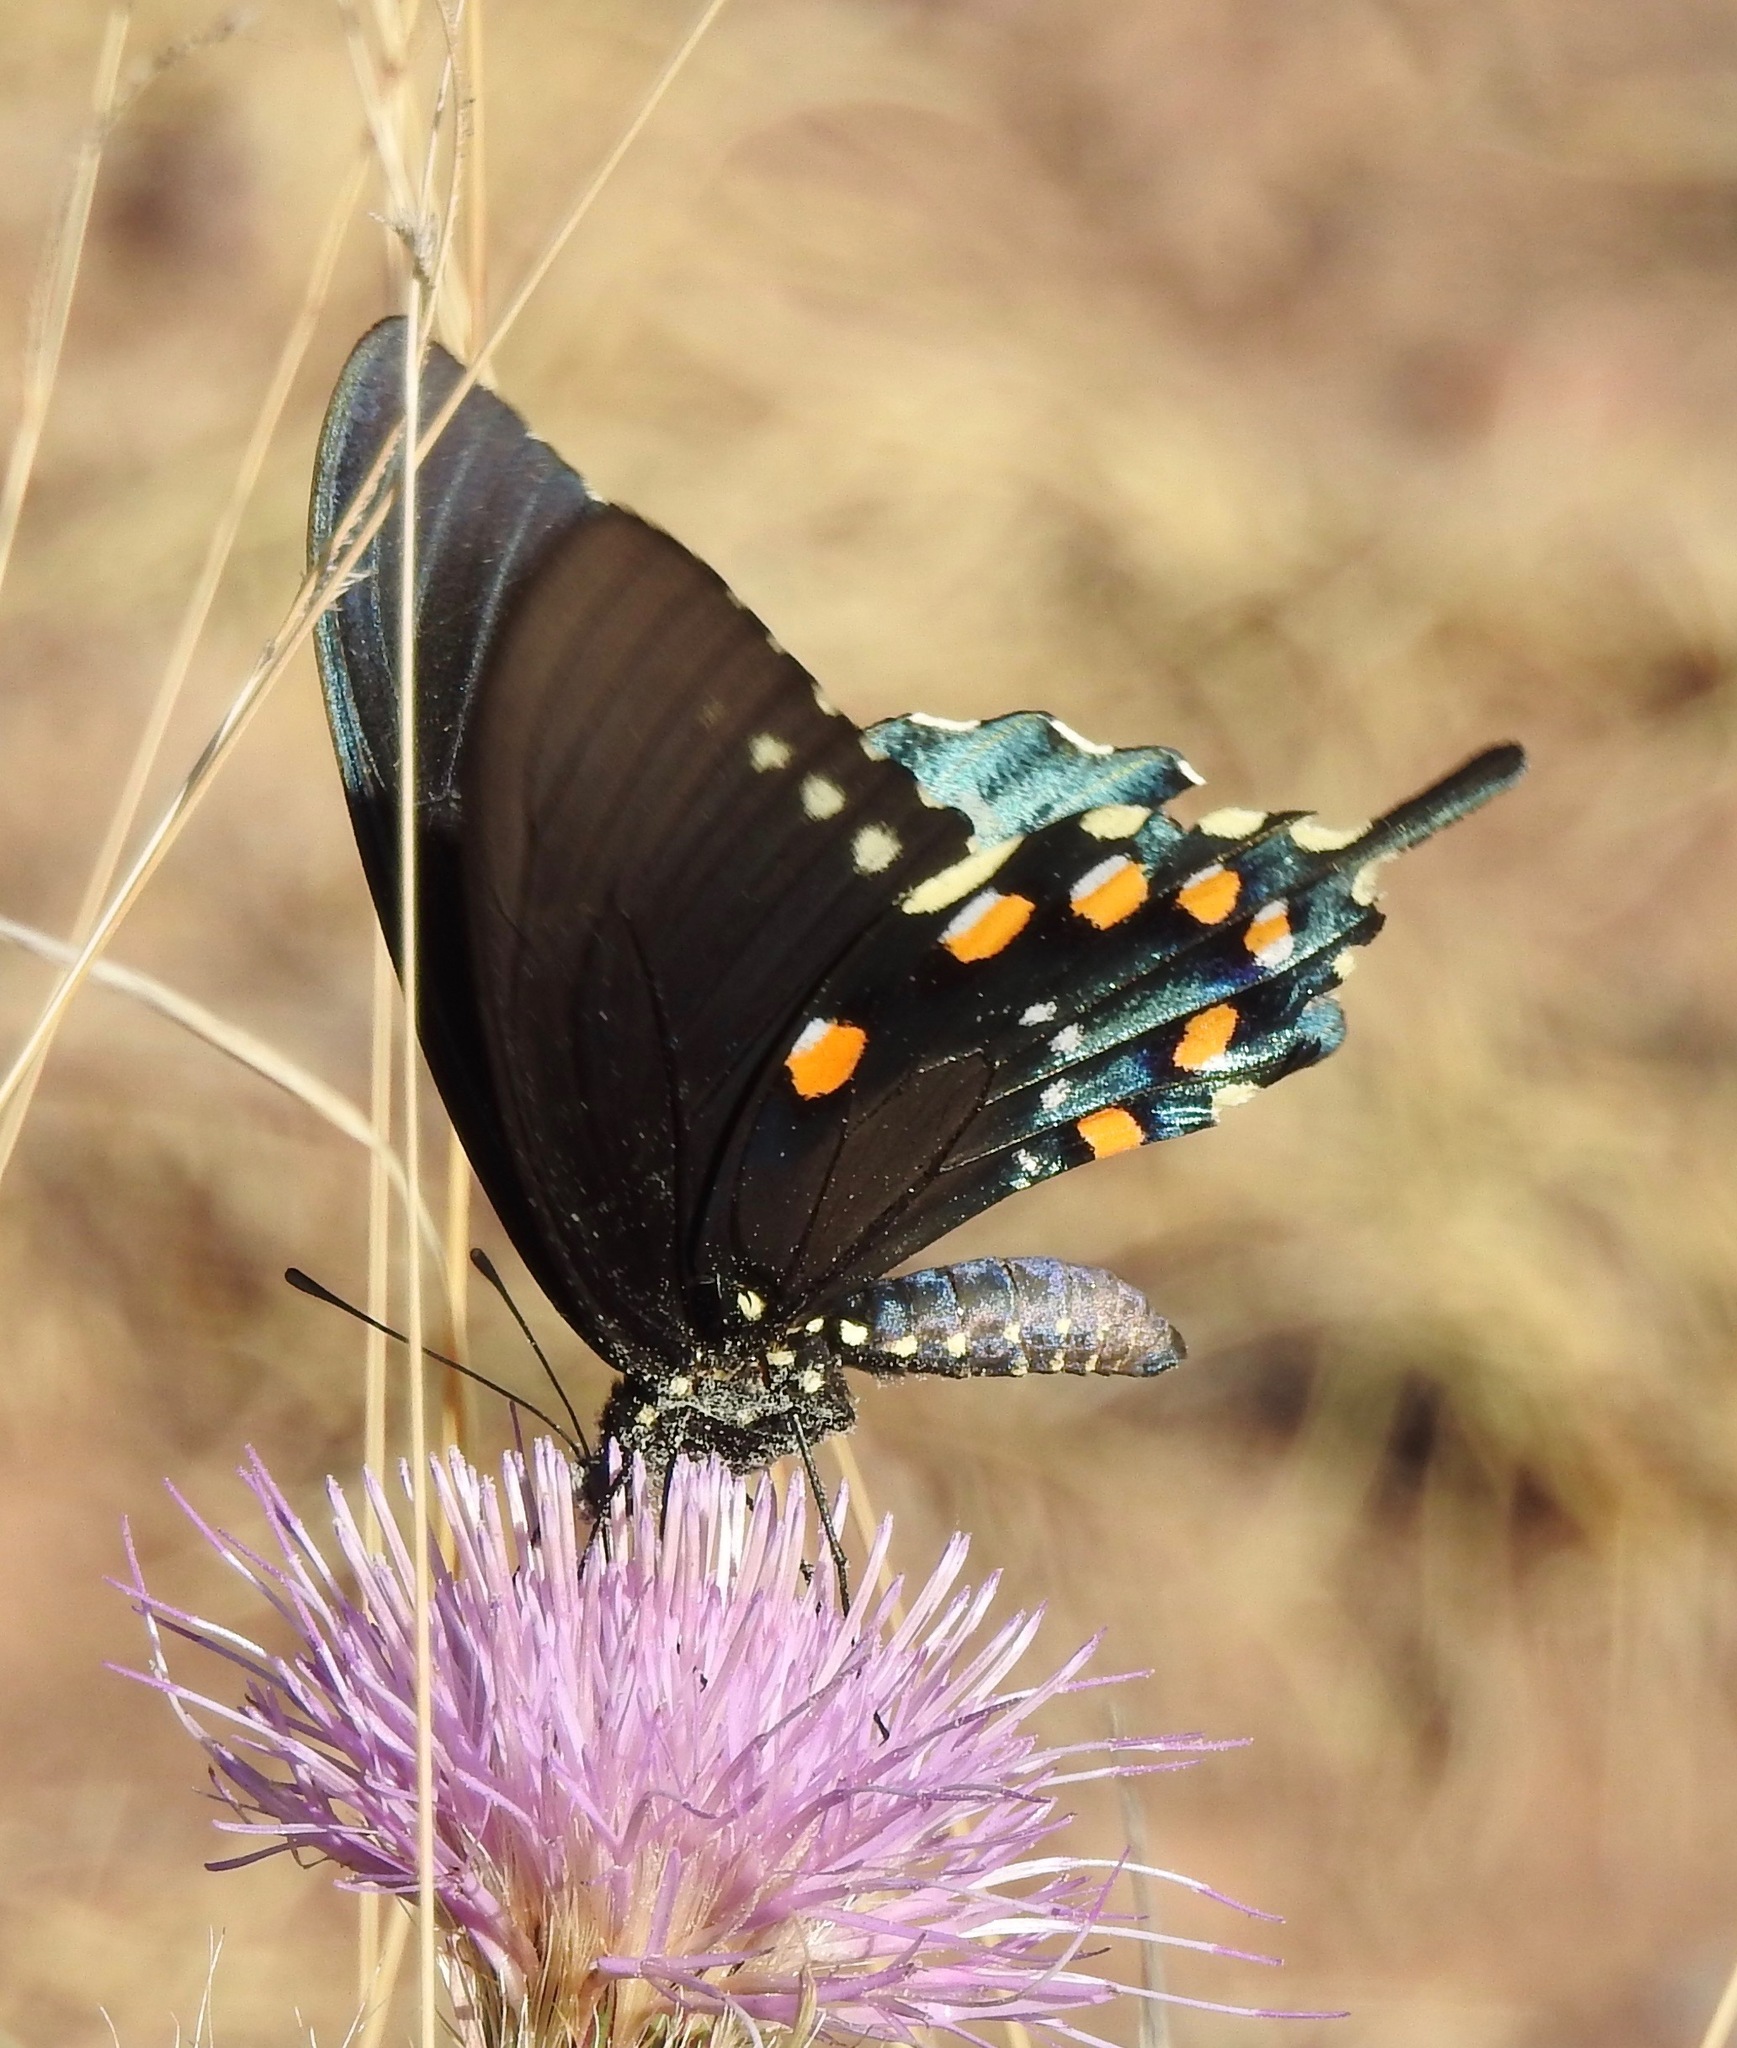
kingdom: Animalia
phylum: Arthropoda
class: Insecta
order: Lepidoptera
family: Papilionidae
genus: Battus
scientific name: Battus philenor
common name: Pipevine swallowtail
